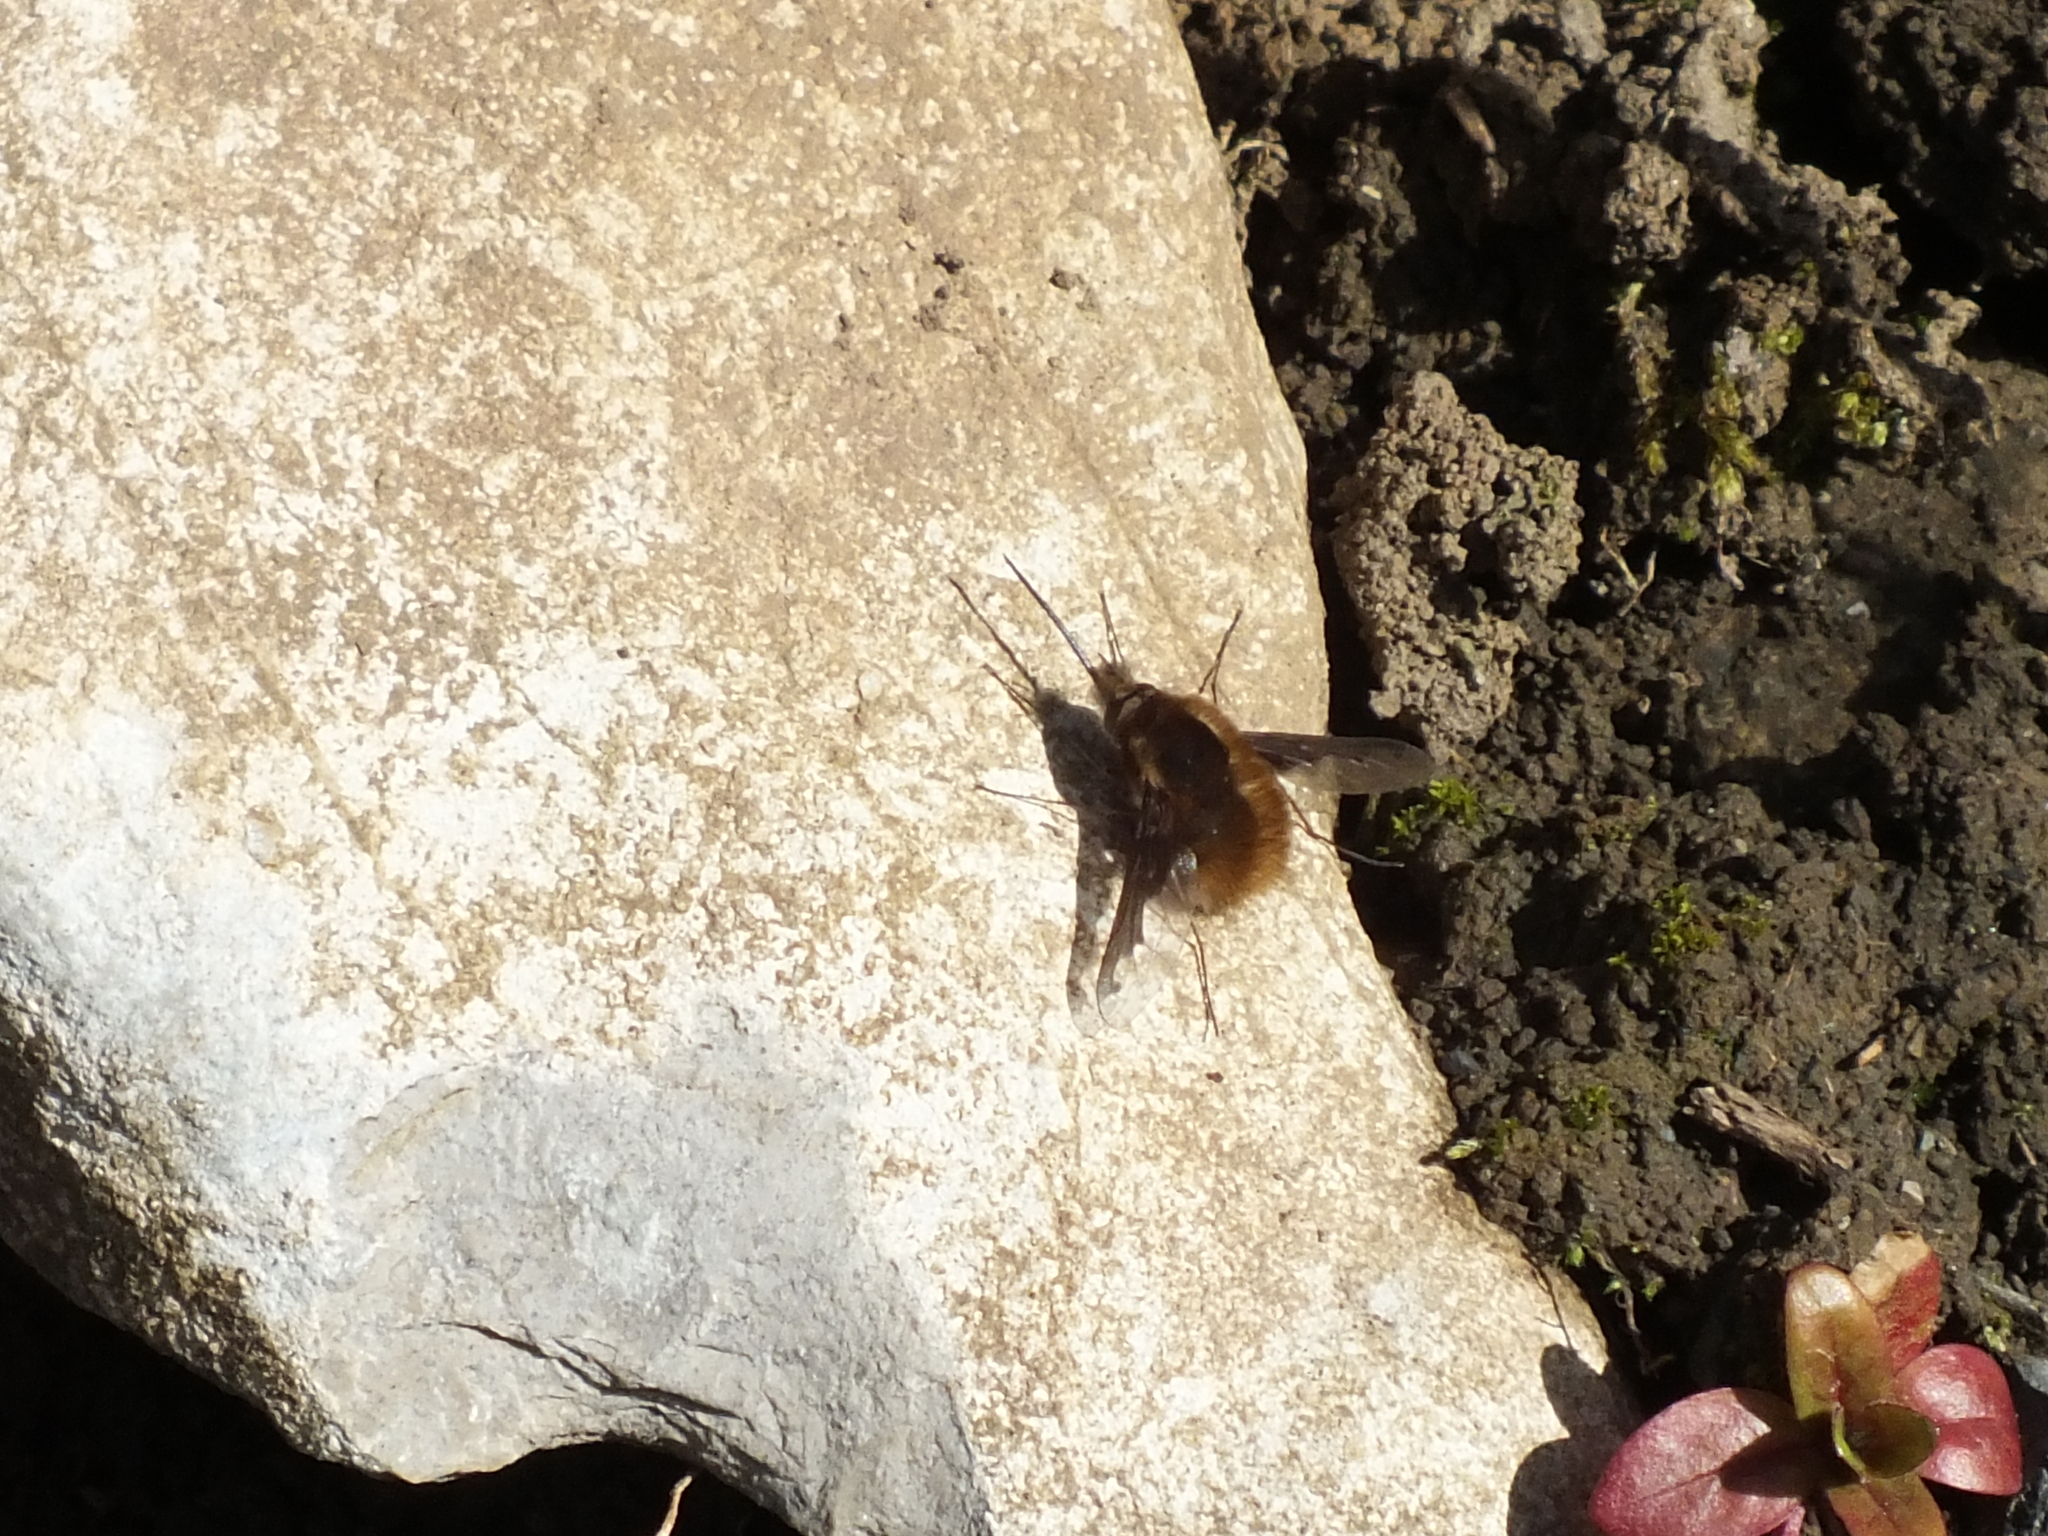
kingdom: Animalia
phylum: Arthropoda
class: Insecta
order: Diptera
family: Bombyliidae
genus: Bombylius
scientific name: Bombylius major
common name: Bee fly
